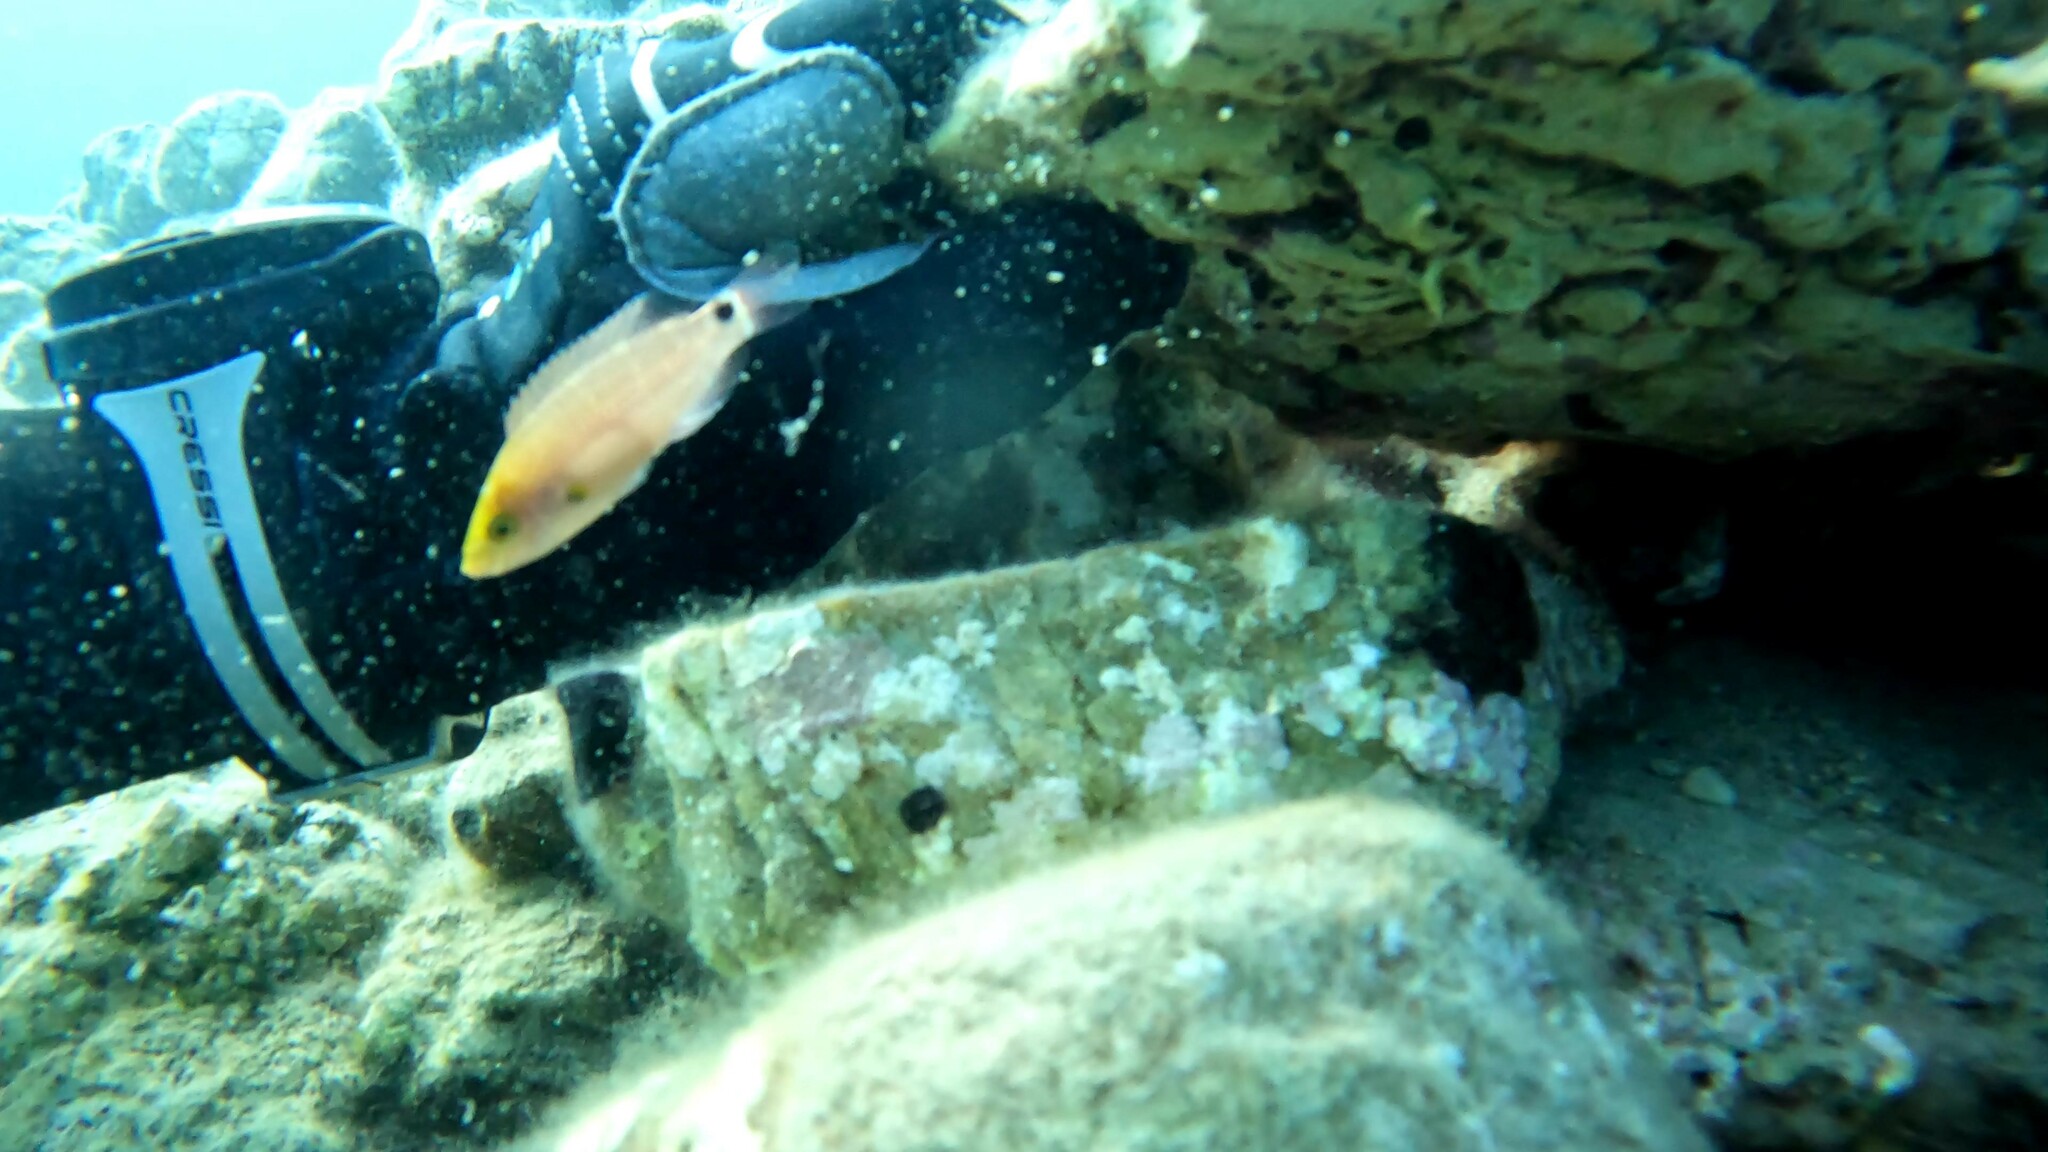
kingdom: Animalia
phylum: Chordata
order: Perciformes
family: Labridae
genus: Symphodus
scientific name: Symphodus mediterraneus
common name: Axillary wrasse
